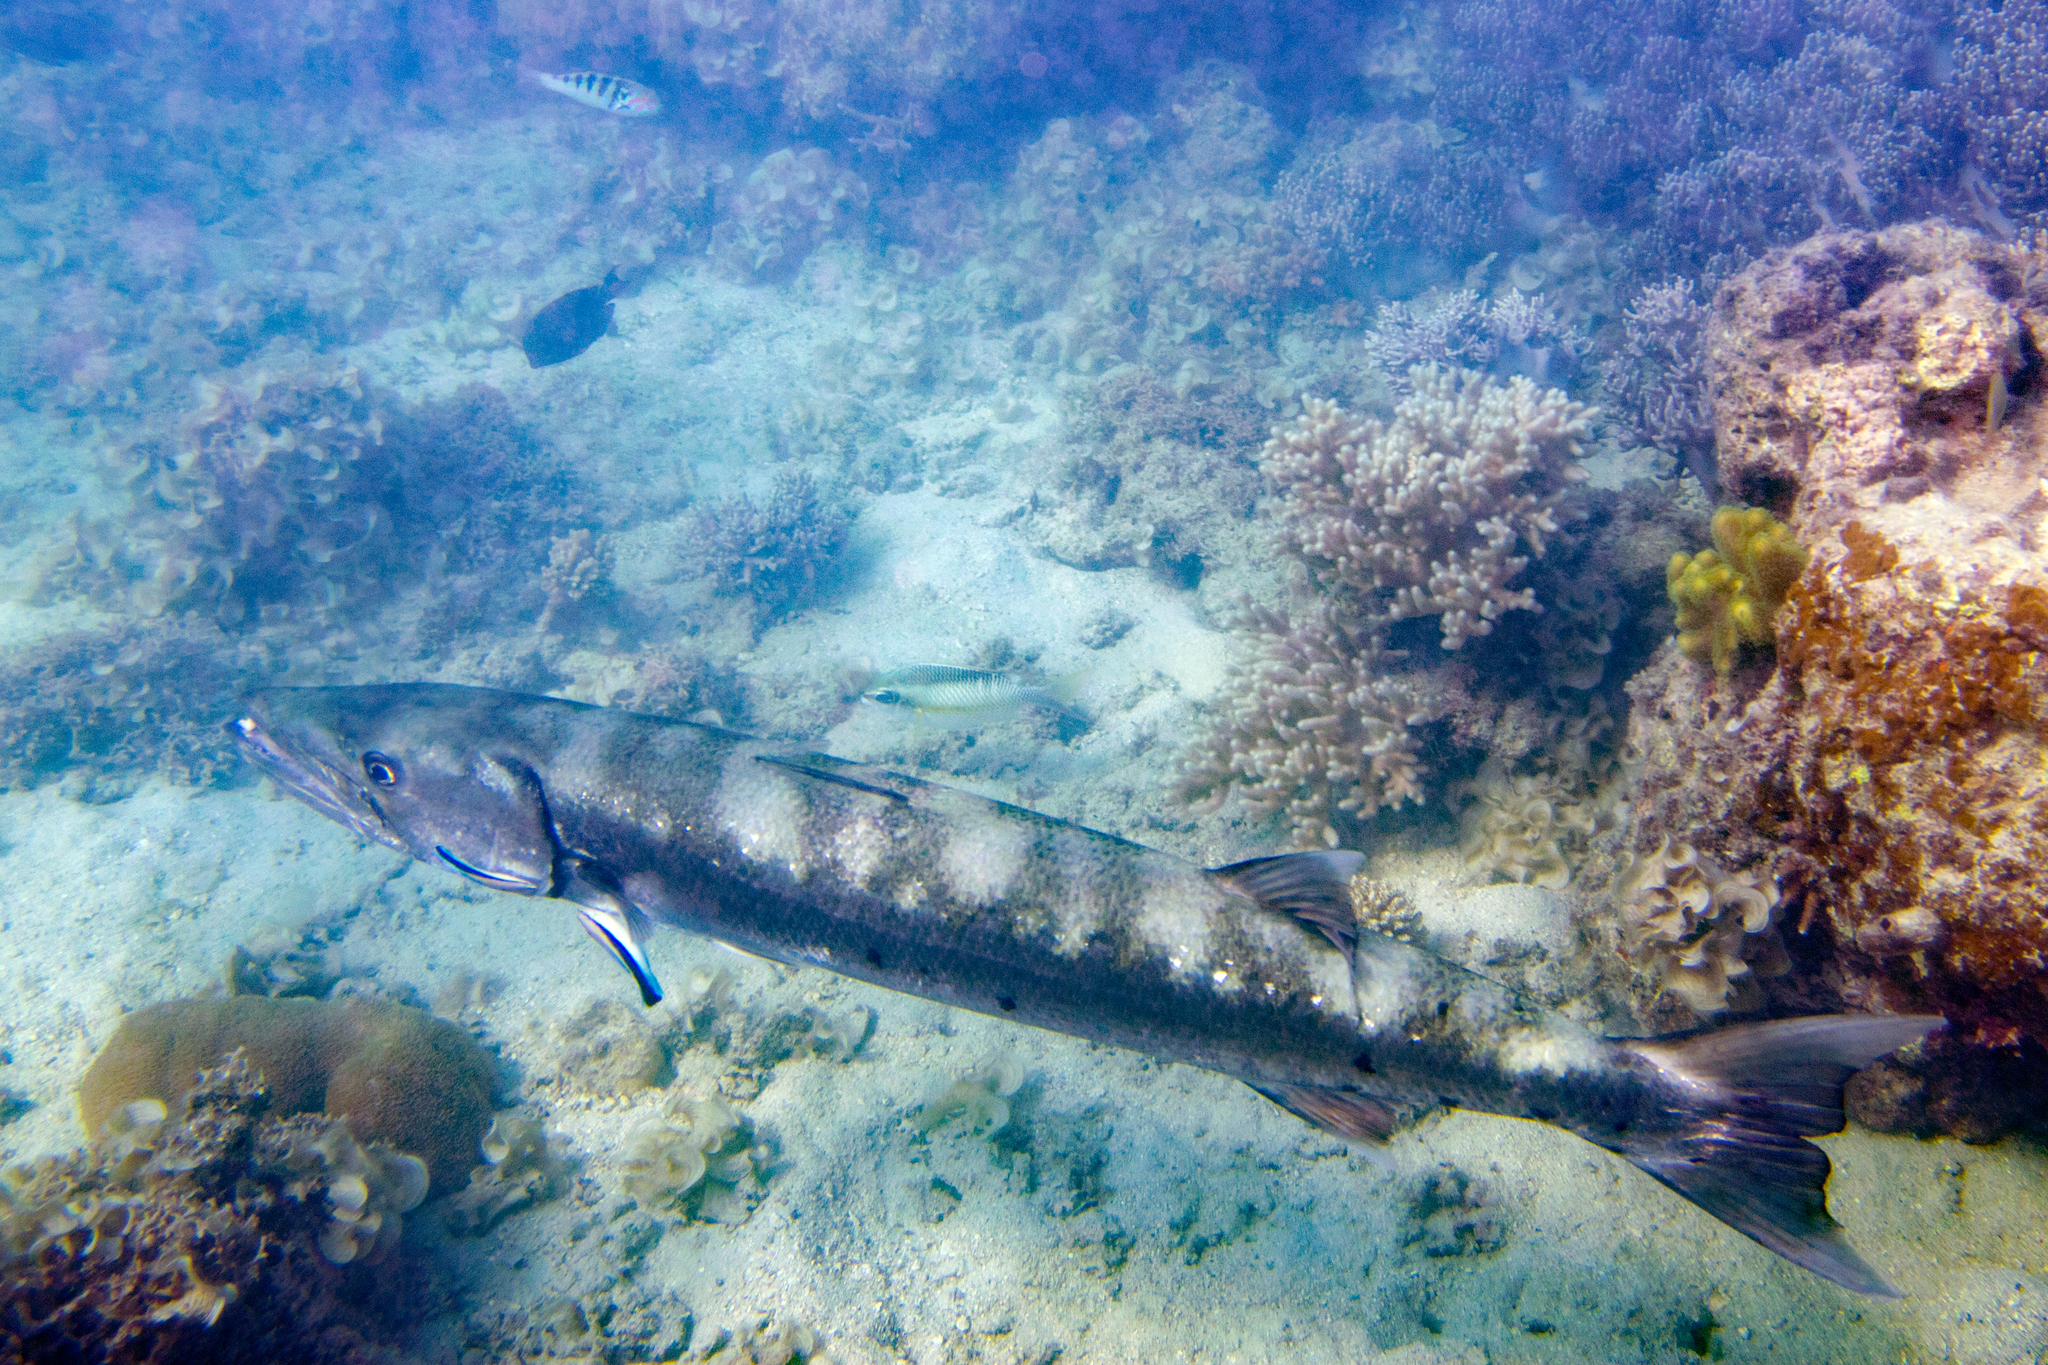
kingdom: Animalia
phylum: Chordata
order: Perciformes
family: Labridae
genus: Labroides
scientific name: Labroides dimidiatus
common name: Blue diesel wrasse
